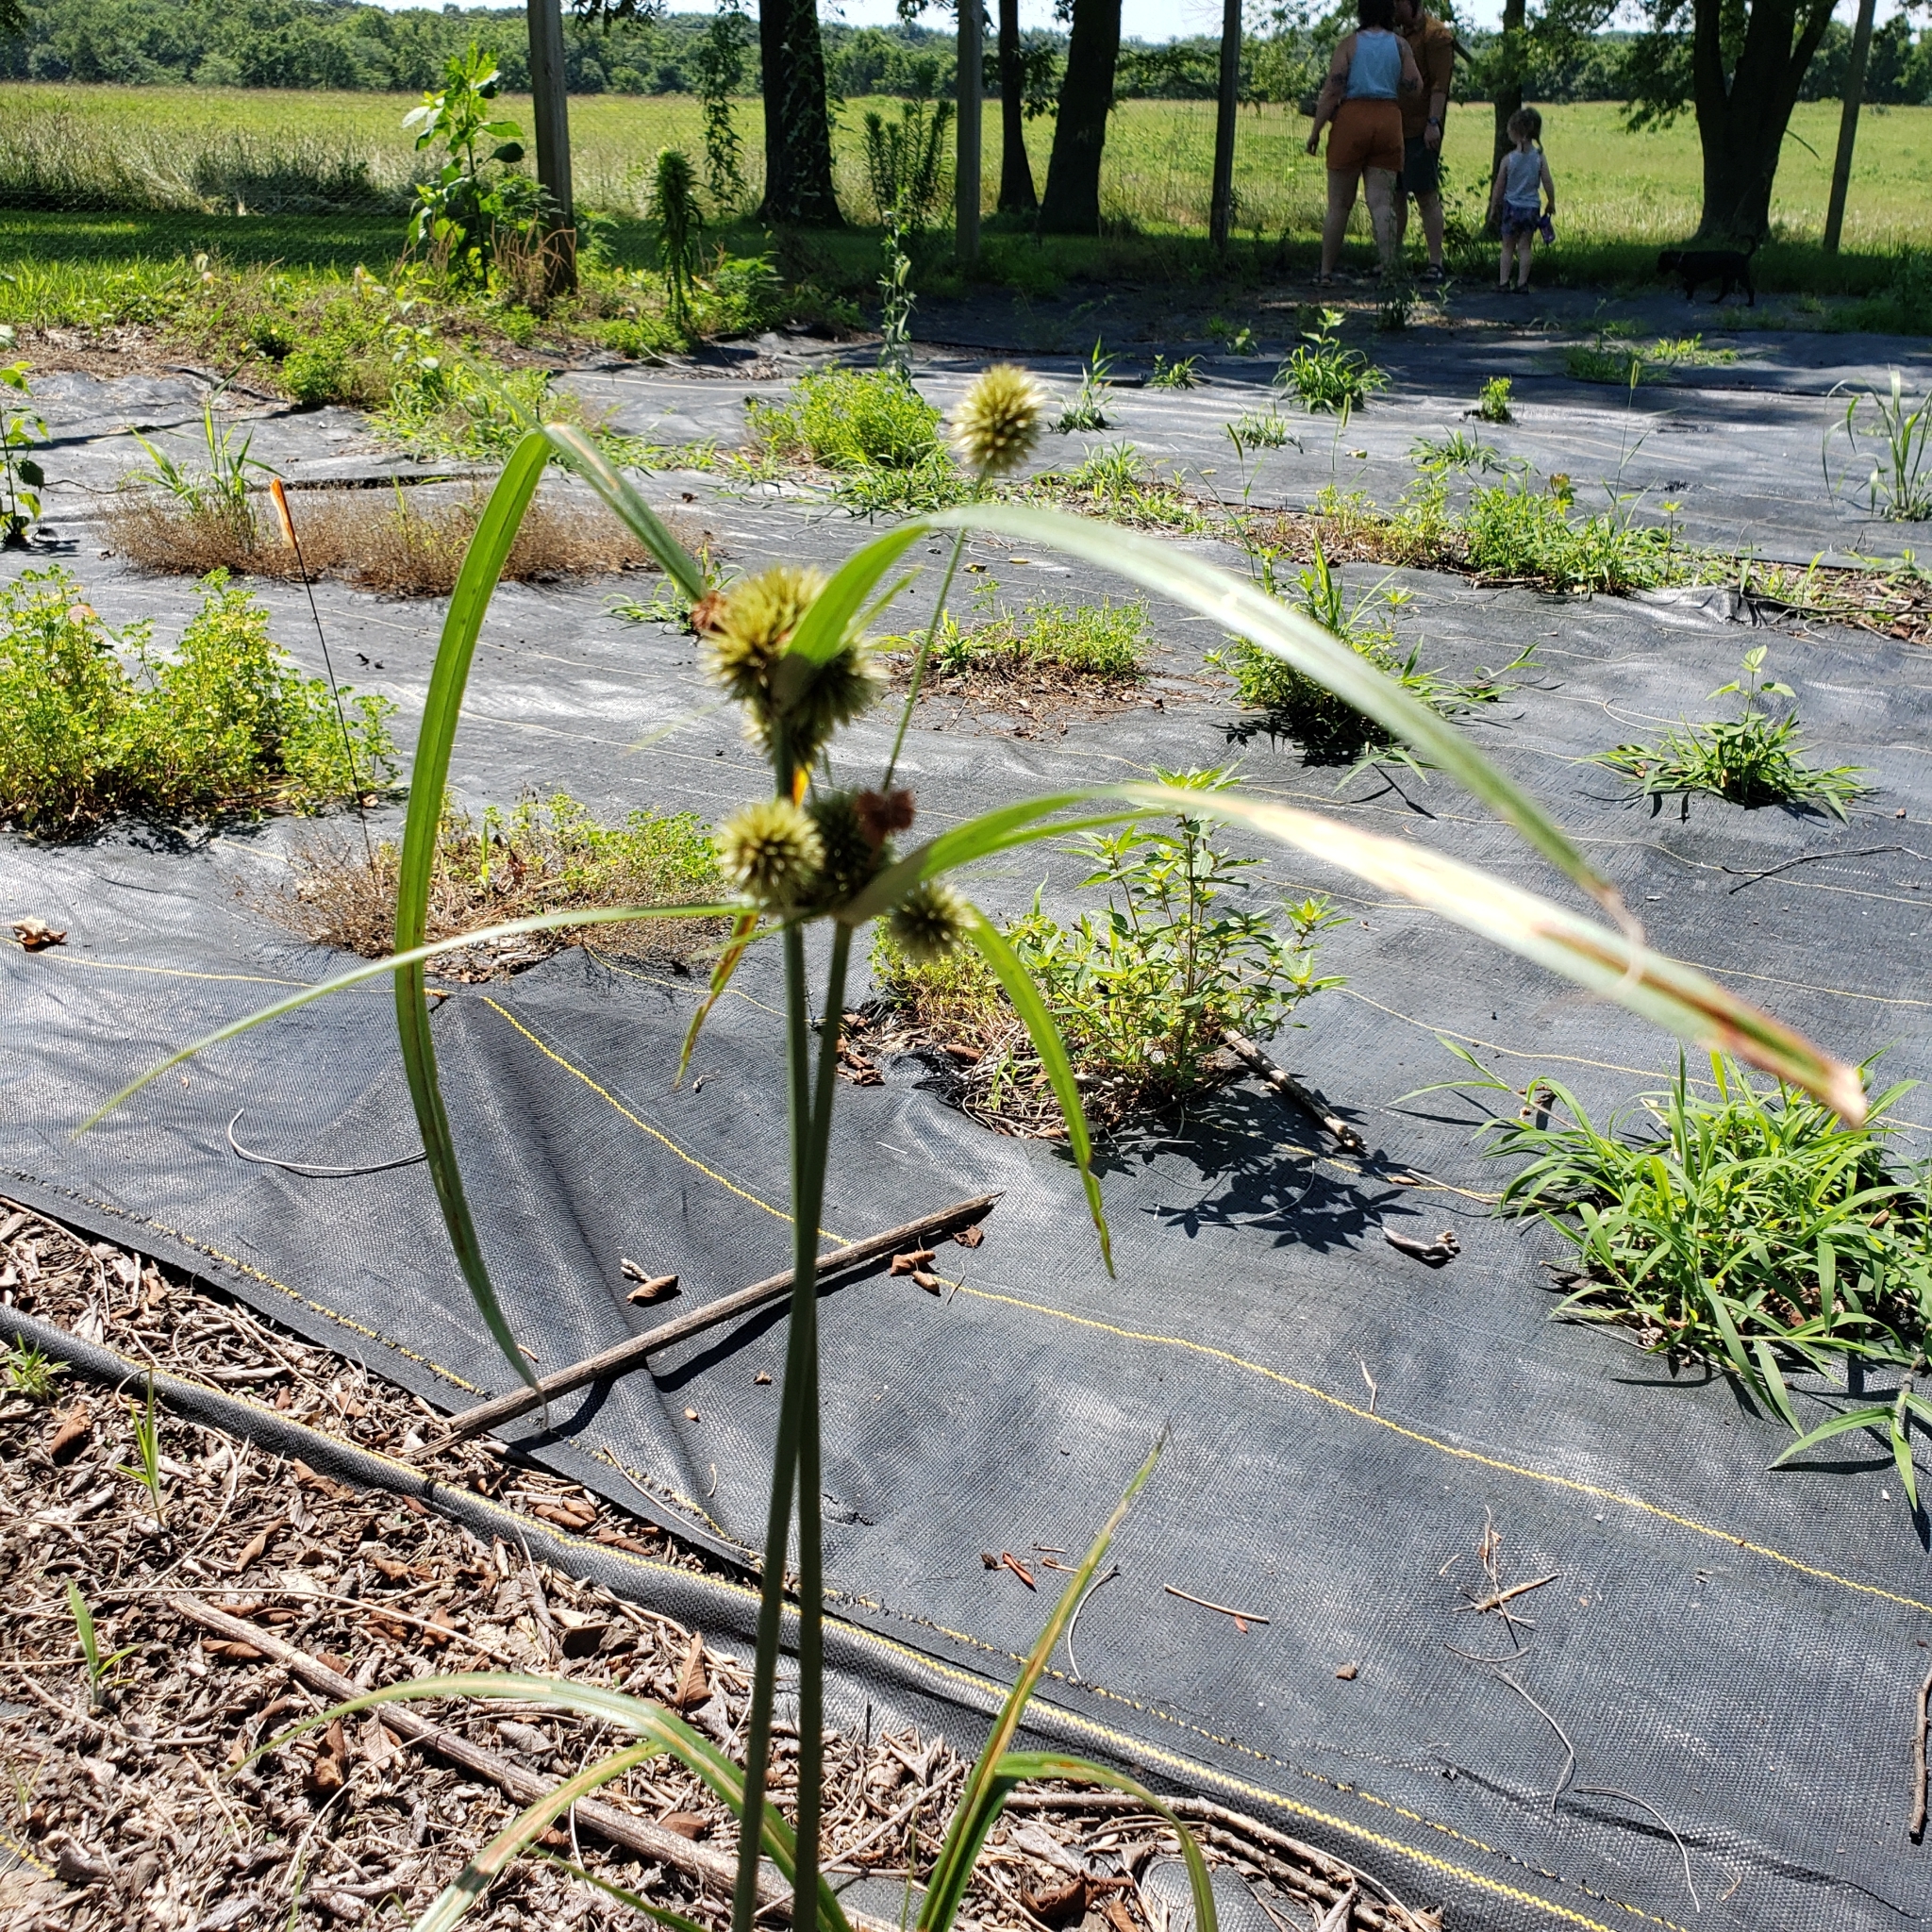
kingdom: Plantae
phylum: Tracheophyta
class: Liliopsida
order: Poales
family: Cyperaceae
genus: Cyperus
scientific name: Cyperus echinatus
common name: Teasel sedge
